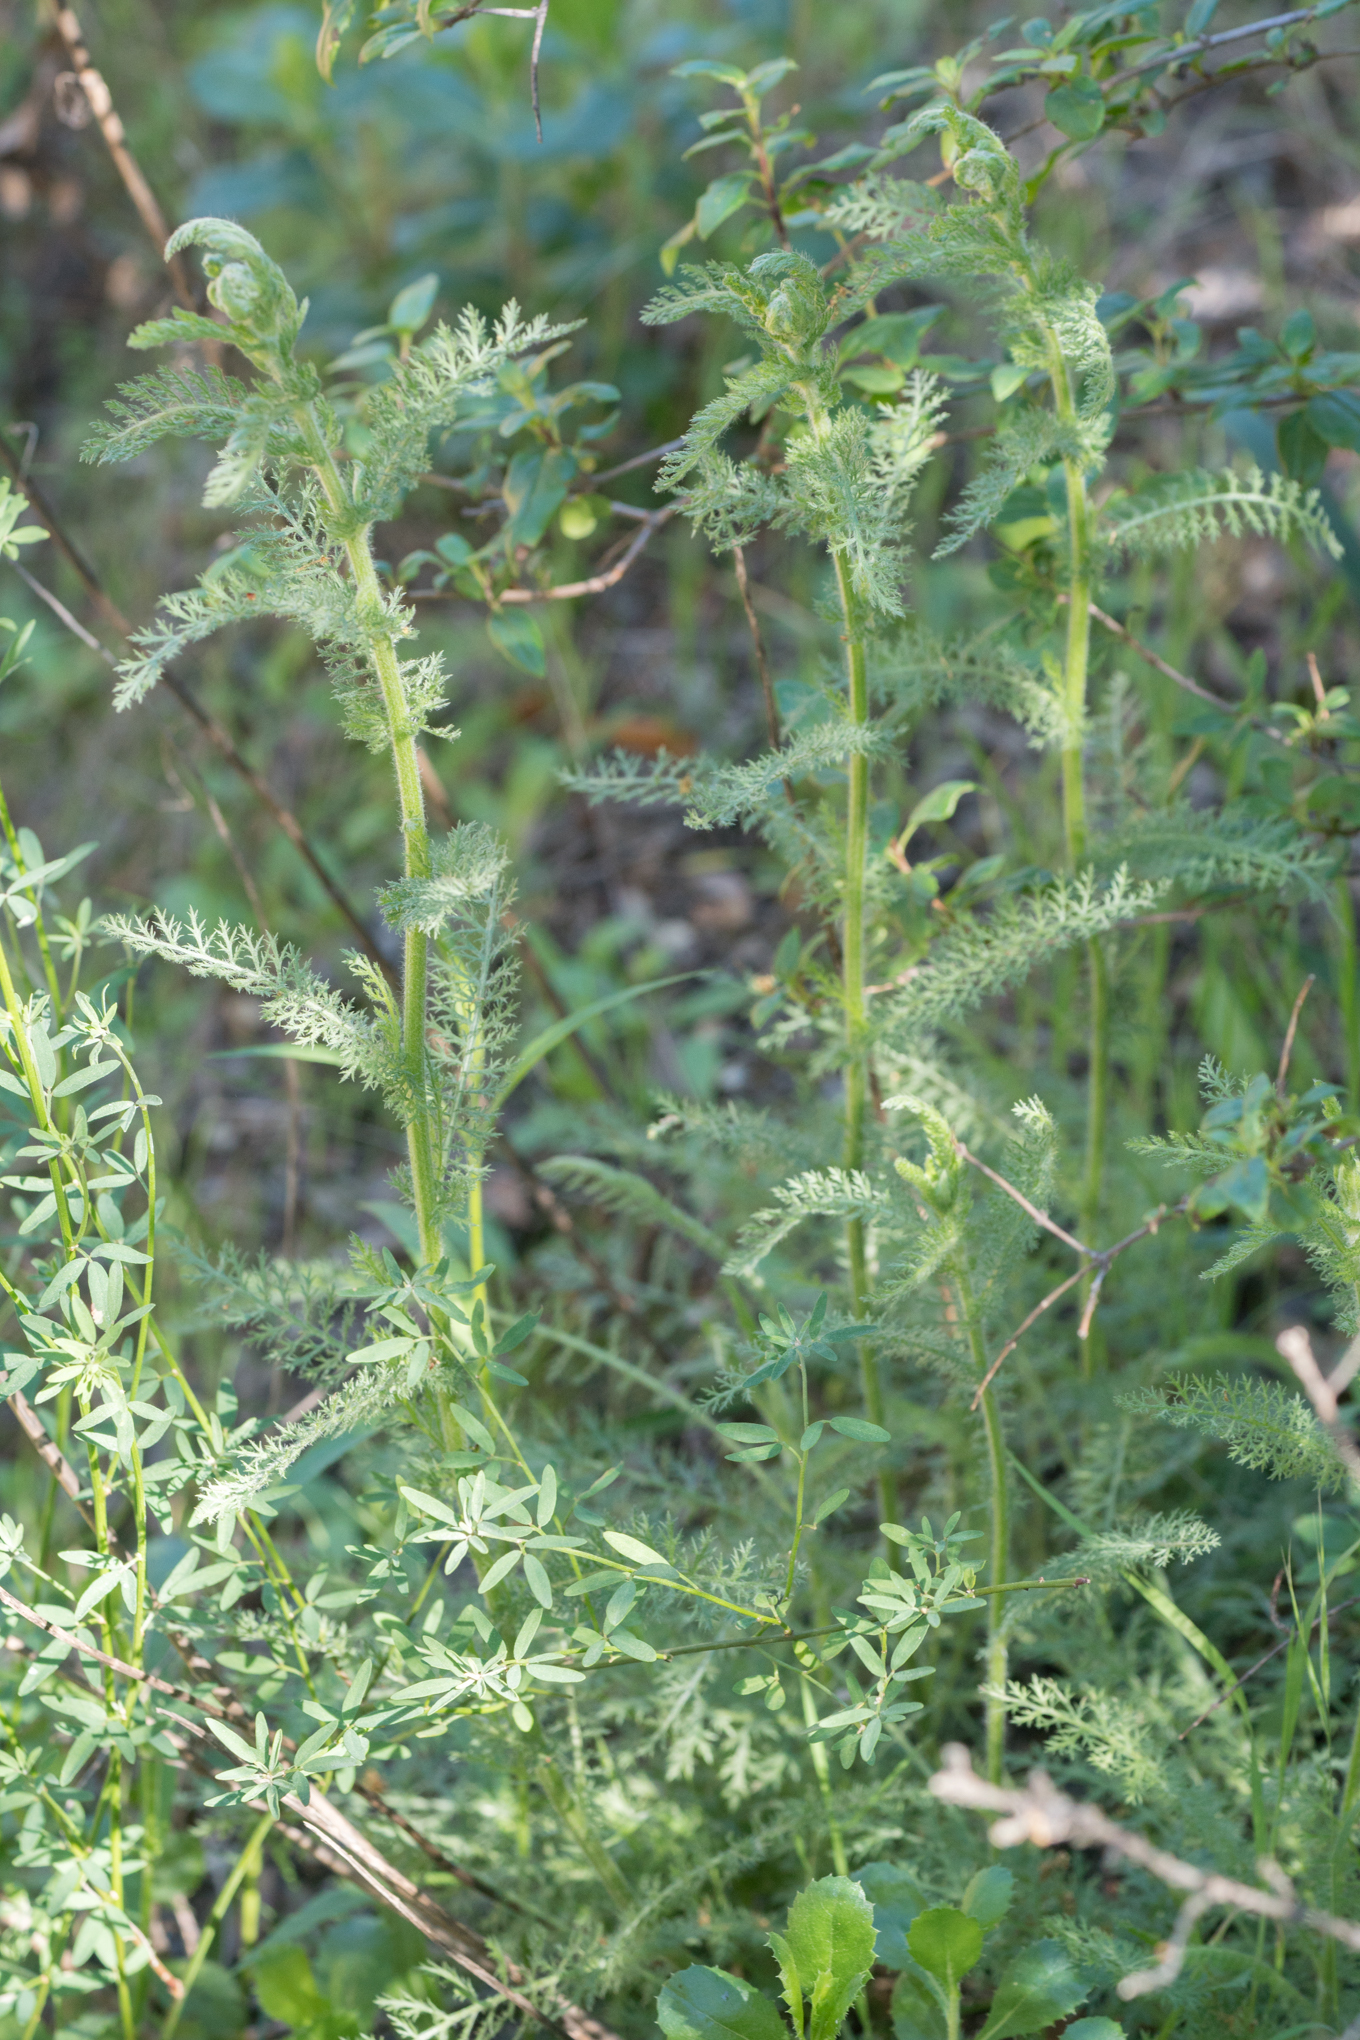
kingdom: Plantae
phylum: Tracheophyta
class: Magnoliopsida
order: Asterales
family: Asteraceae
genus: Achillea
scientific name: Achillea millefolium
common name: Yarrow
